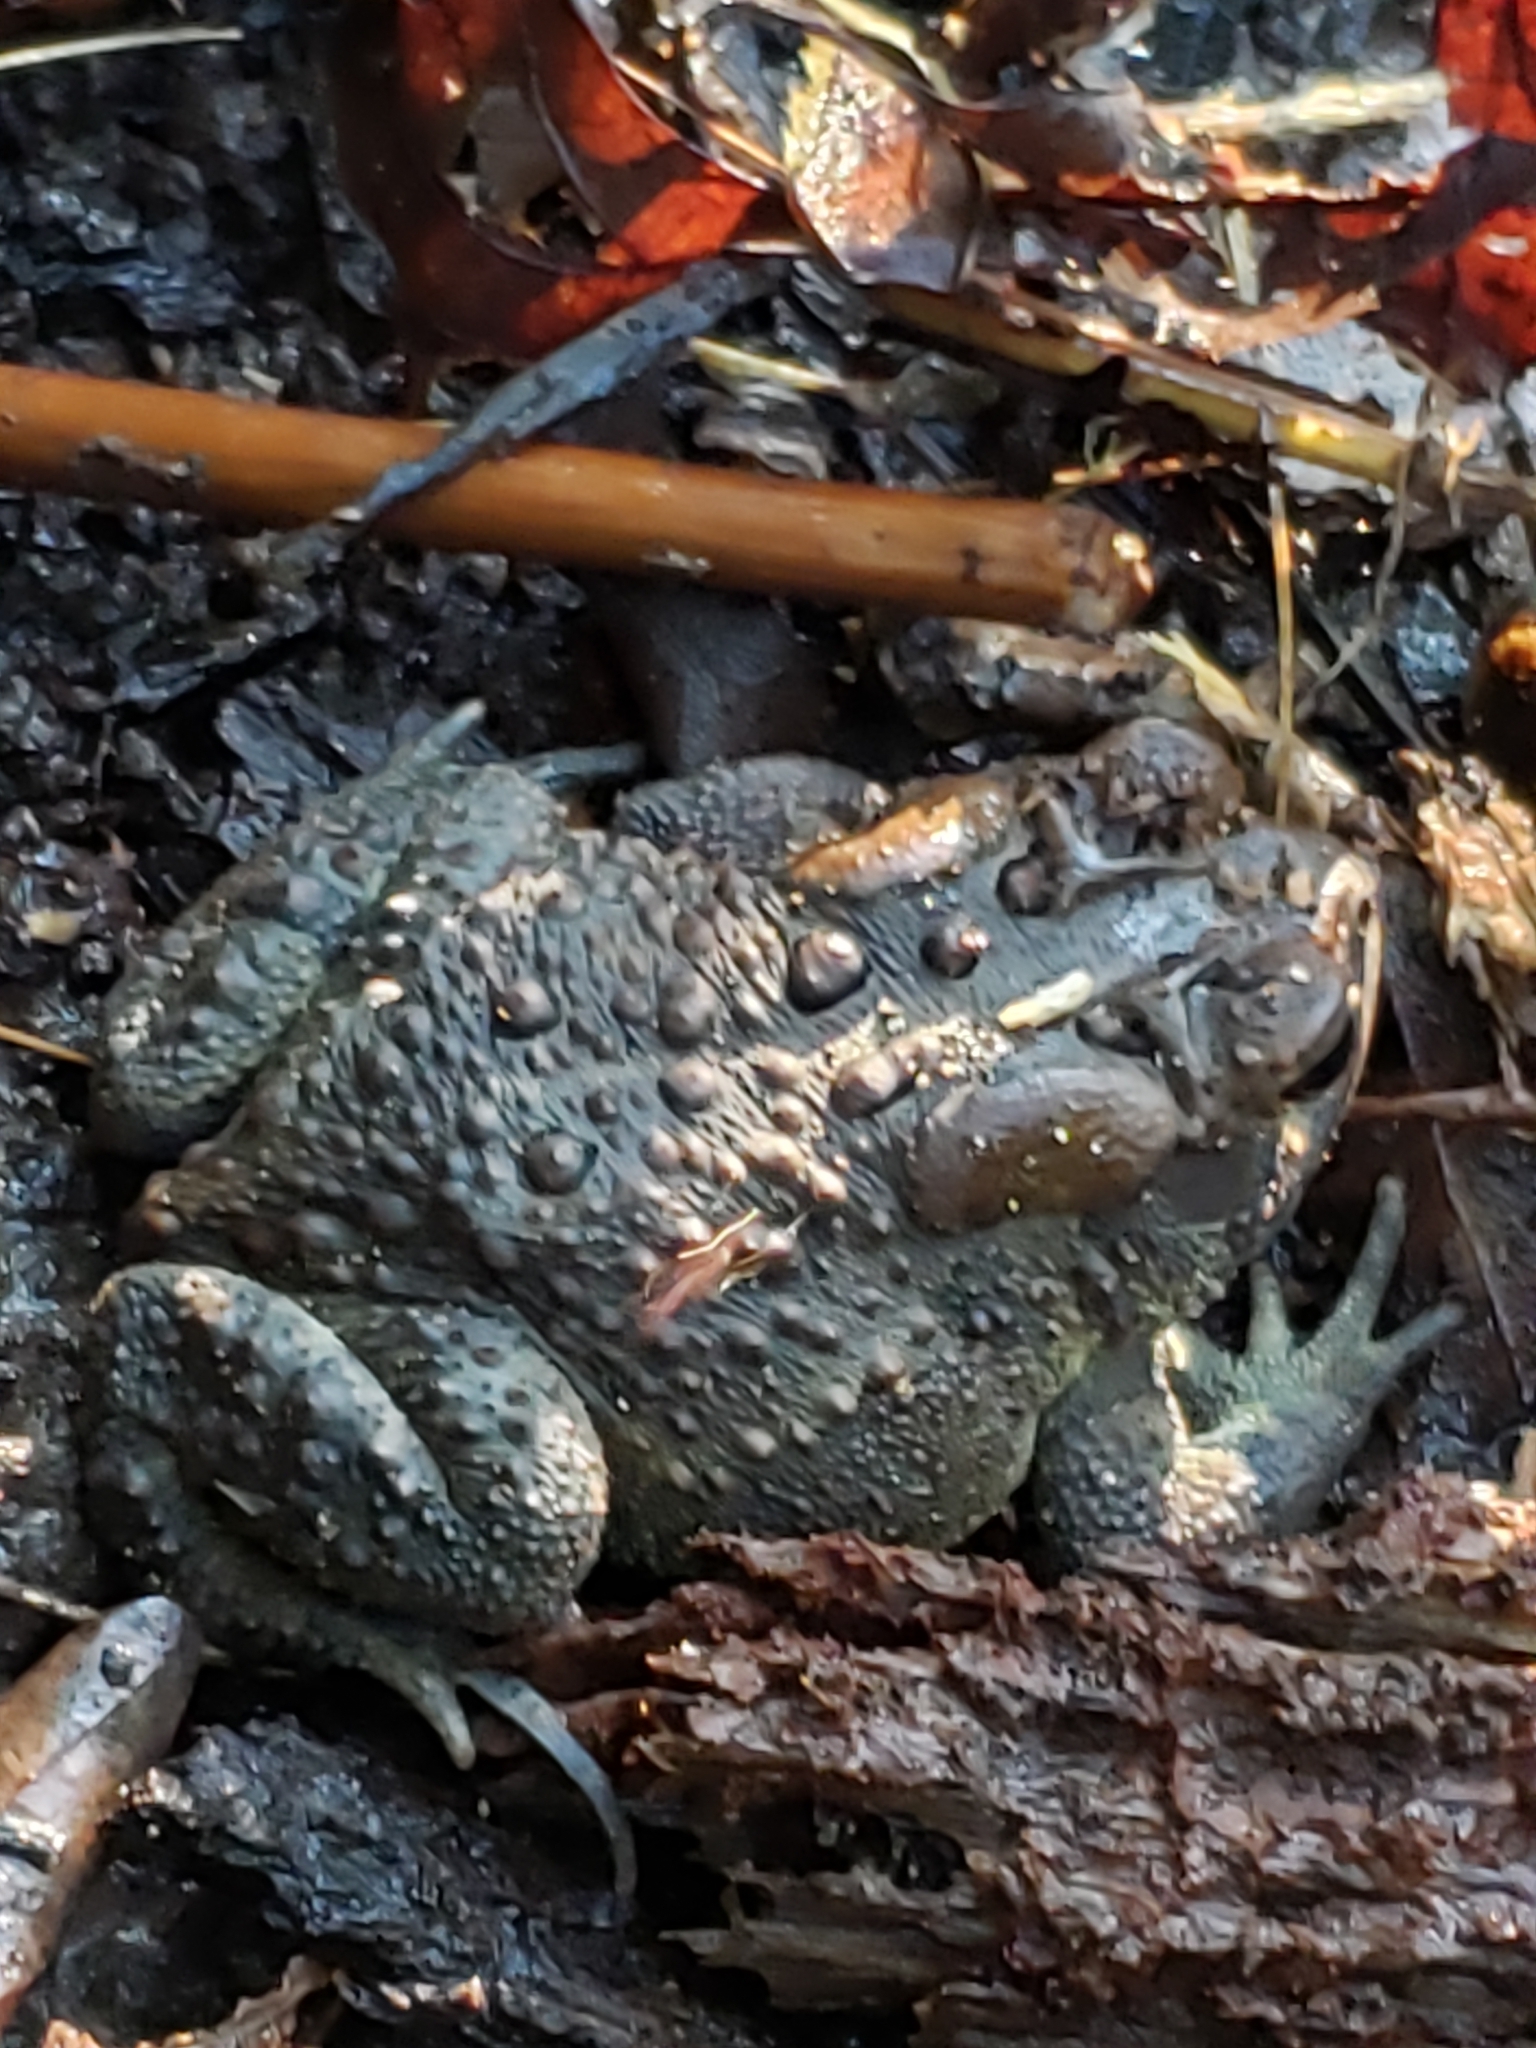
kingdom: Animalia
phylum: Chordata
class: Amphibia
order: Anura
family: Bufonidae
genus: Anaxyrus
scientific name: Anaxyrus americanus
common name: American toad
